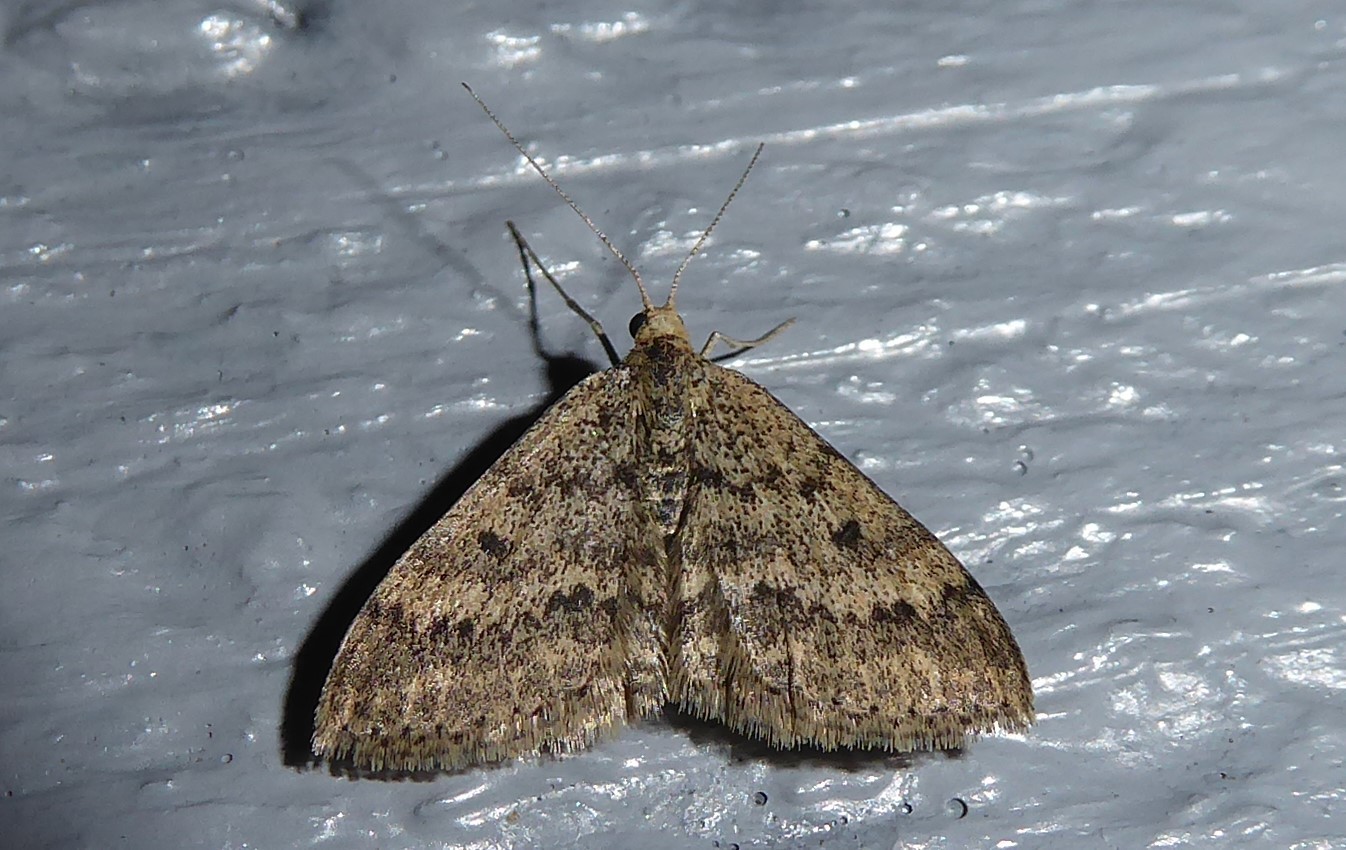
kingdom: Animalia
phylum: Arthropoda
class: Insecta
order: Lepidoptera
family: Geometridae
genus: Scopula
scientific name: Scopula rubraria
